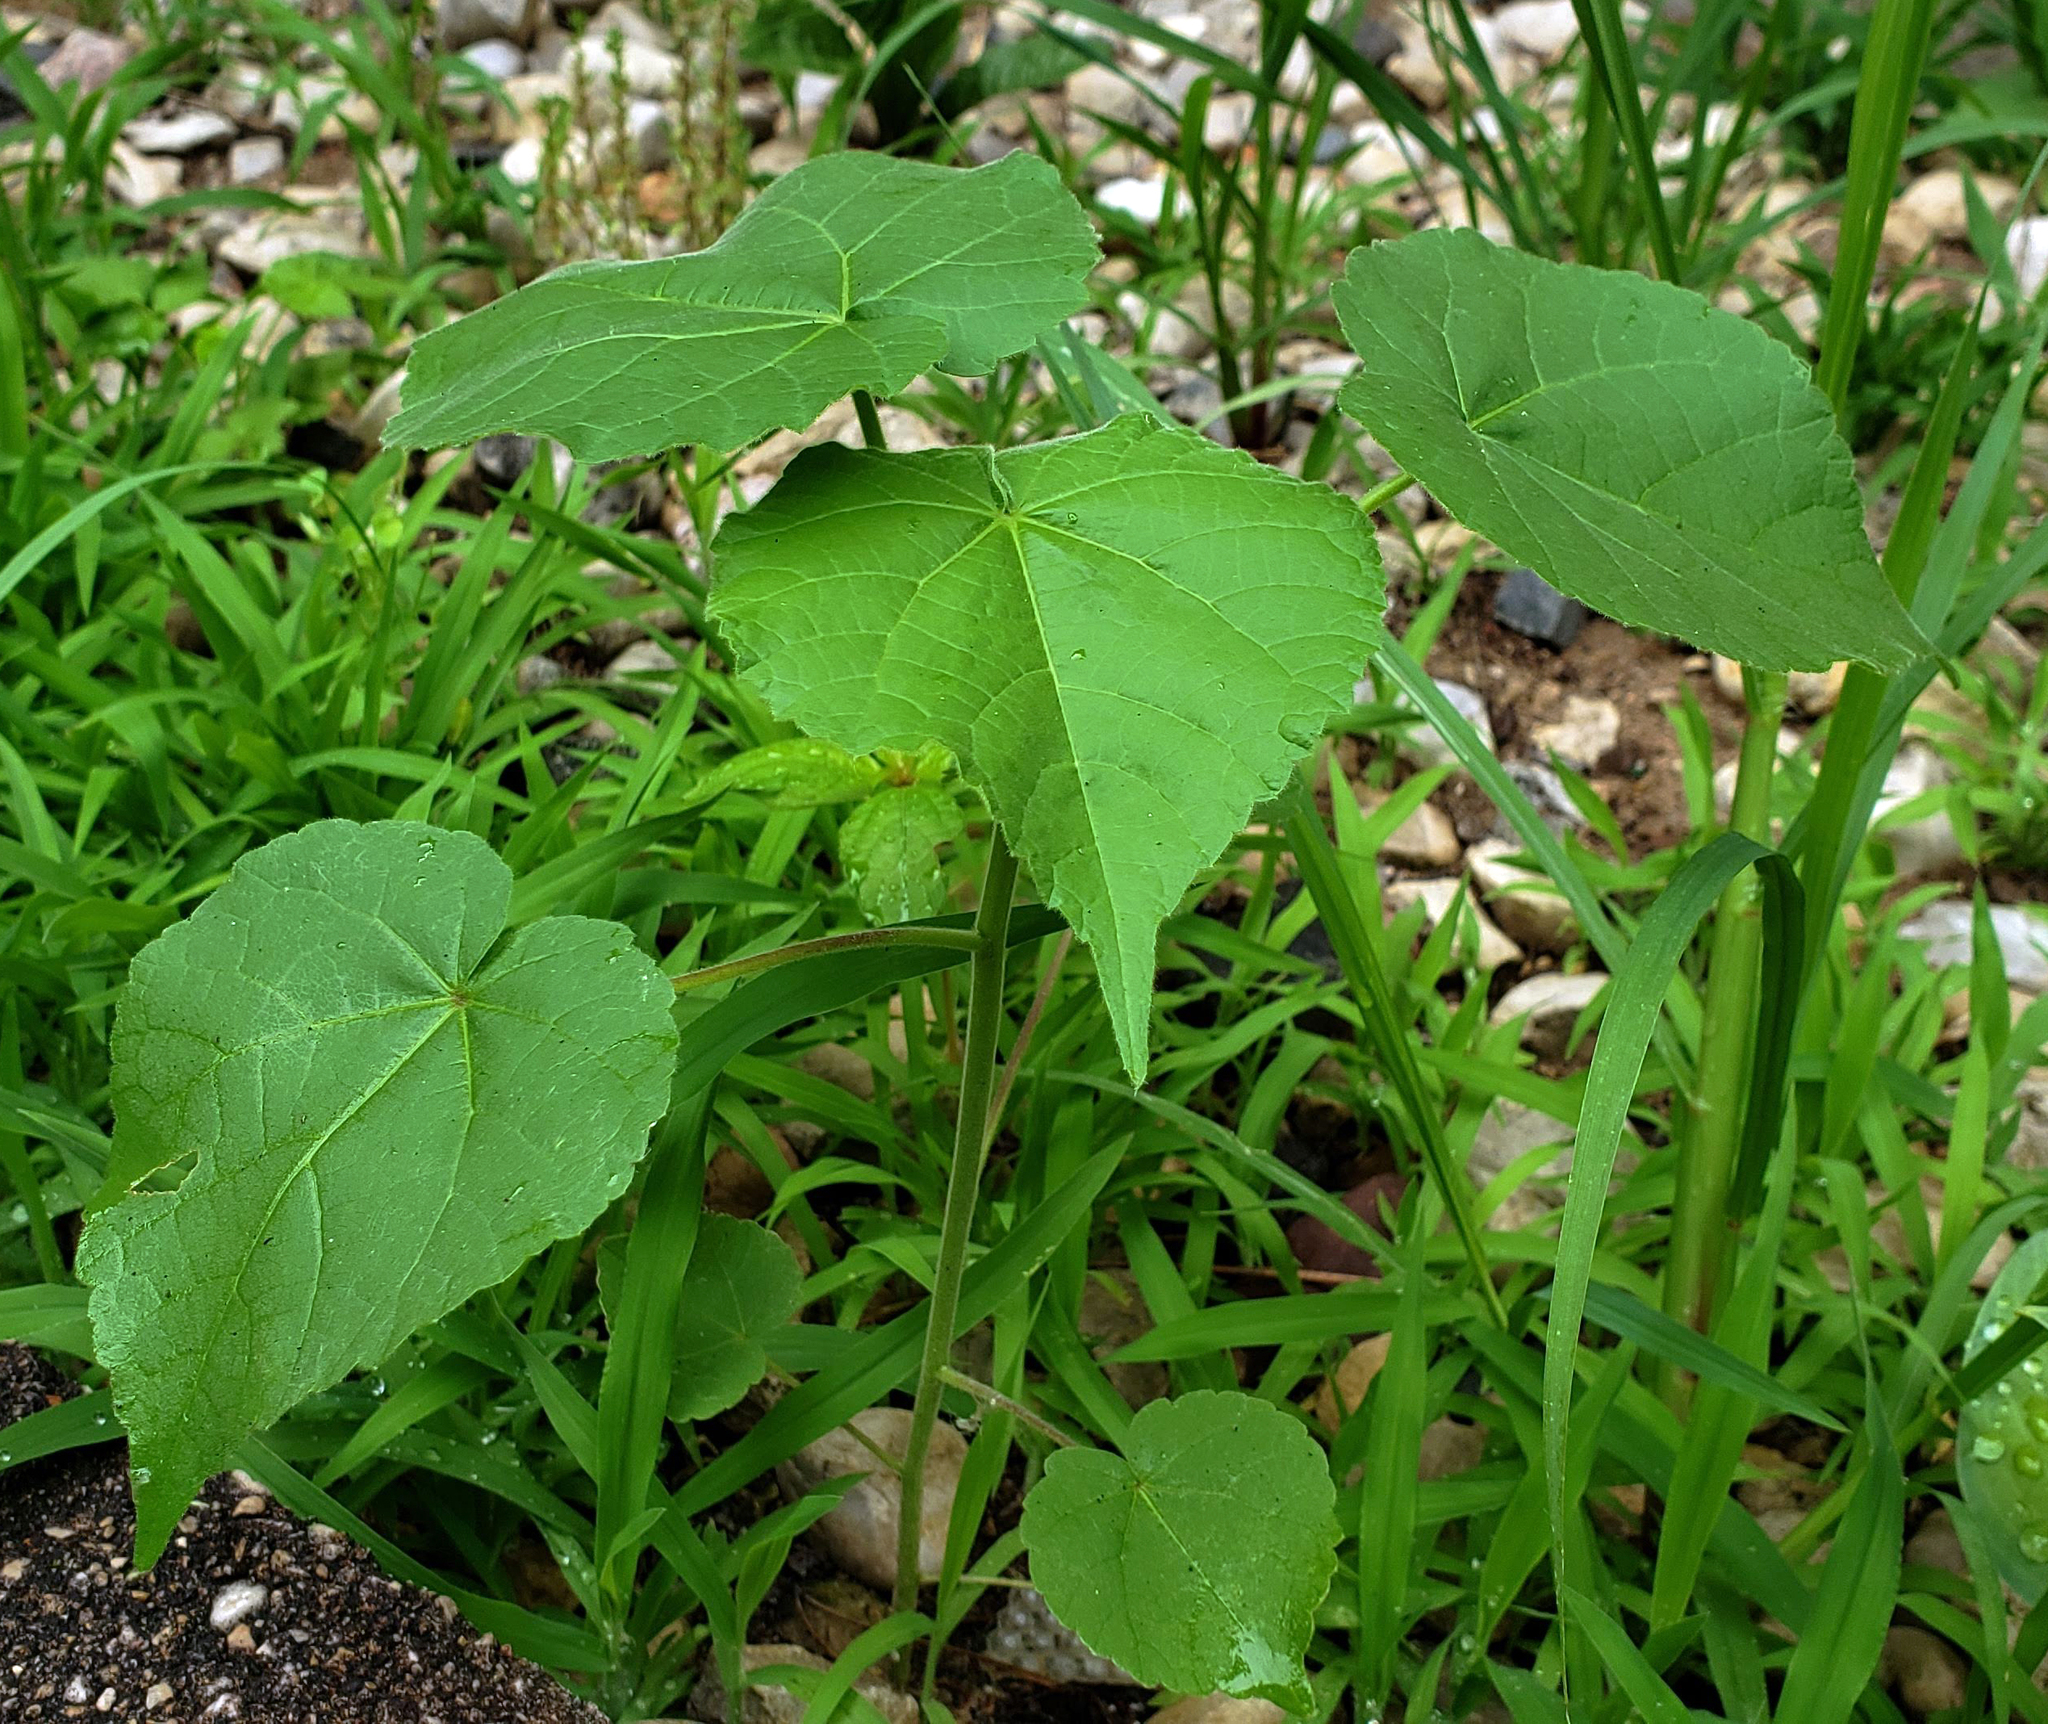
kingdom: Plantae
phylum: Tracheophyta
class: Magnoliopsida
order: Malvales
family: Malvaceae
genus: Abutilon
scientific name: Abutilon theophrasti
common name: Velvetleaf
